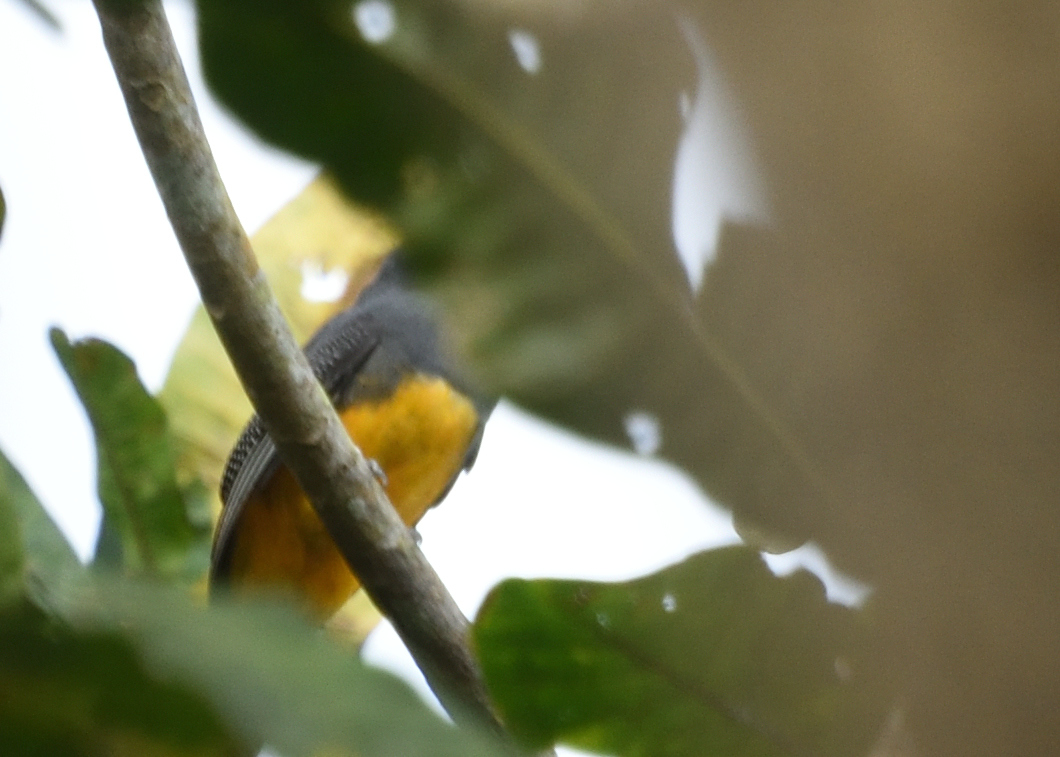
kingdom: Animalia
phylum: Chordata
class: Aves
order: Trogoniformes
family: Trogonidae
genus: Trogon
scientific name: Trogon caligatus
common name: Gartered trogon
